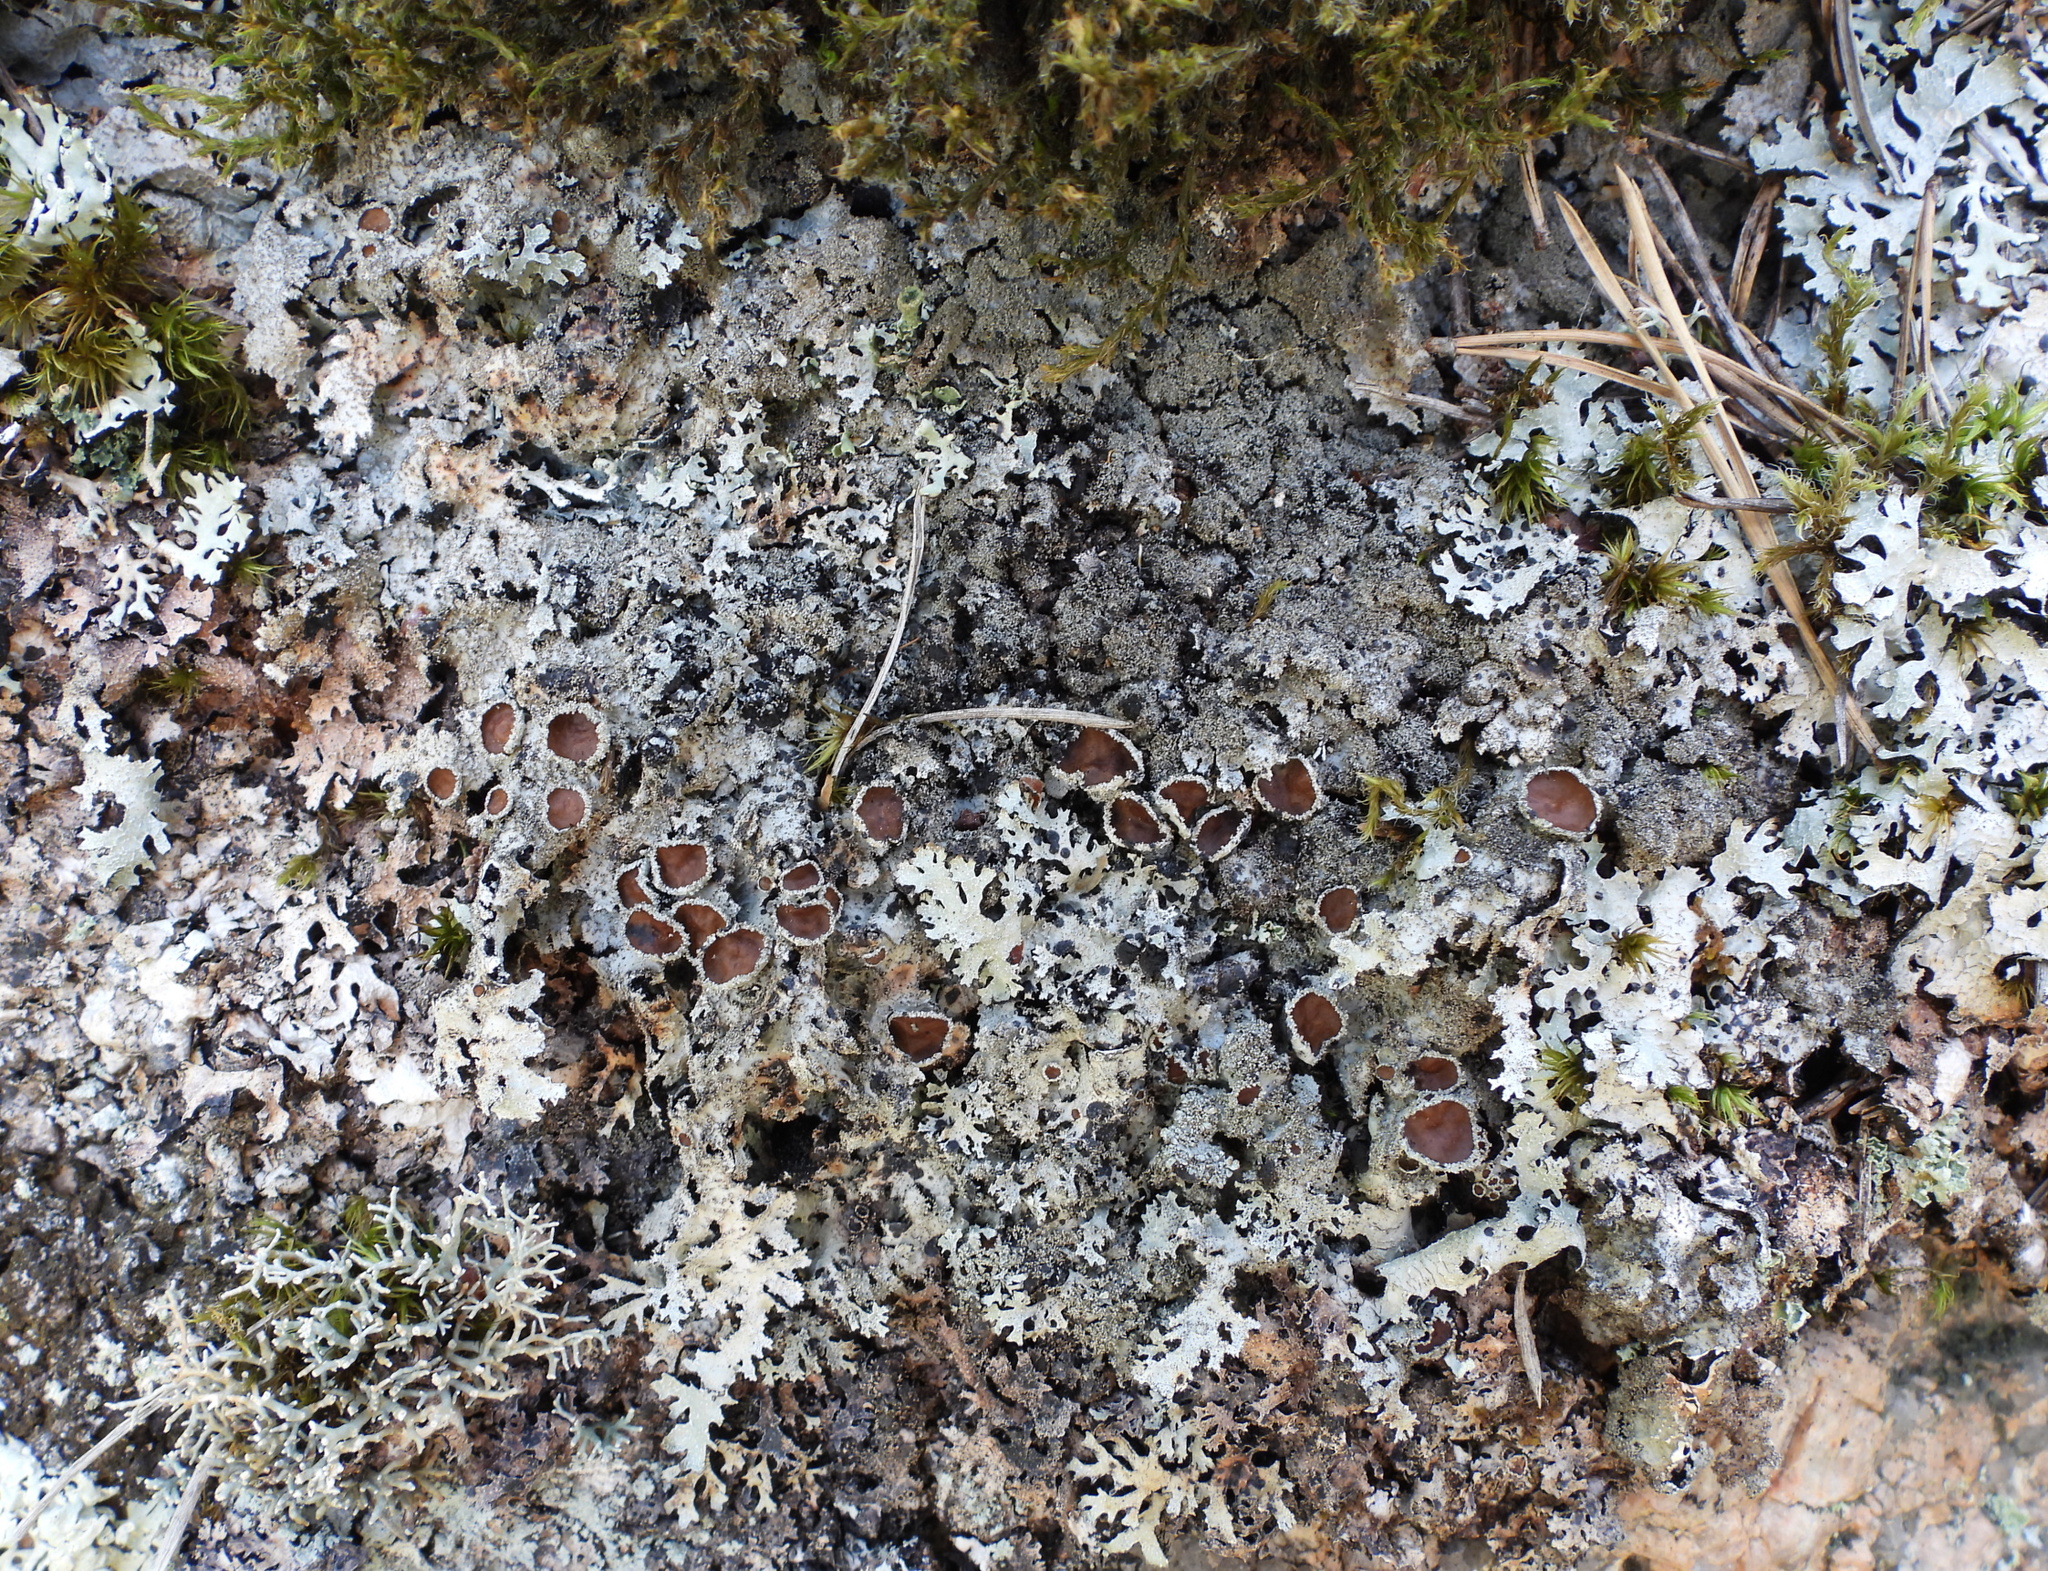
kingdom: Fungi
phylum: Ascomycota
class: Lecanoromycetes
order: Lecanorales
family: Parmeliaceae
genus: Parmelia
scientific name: Parmelia saxatilis
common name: Salted shield lichen
